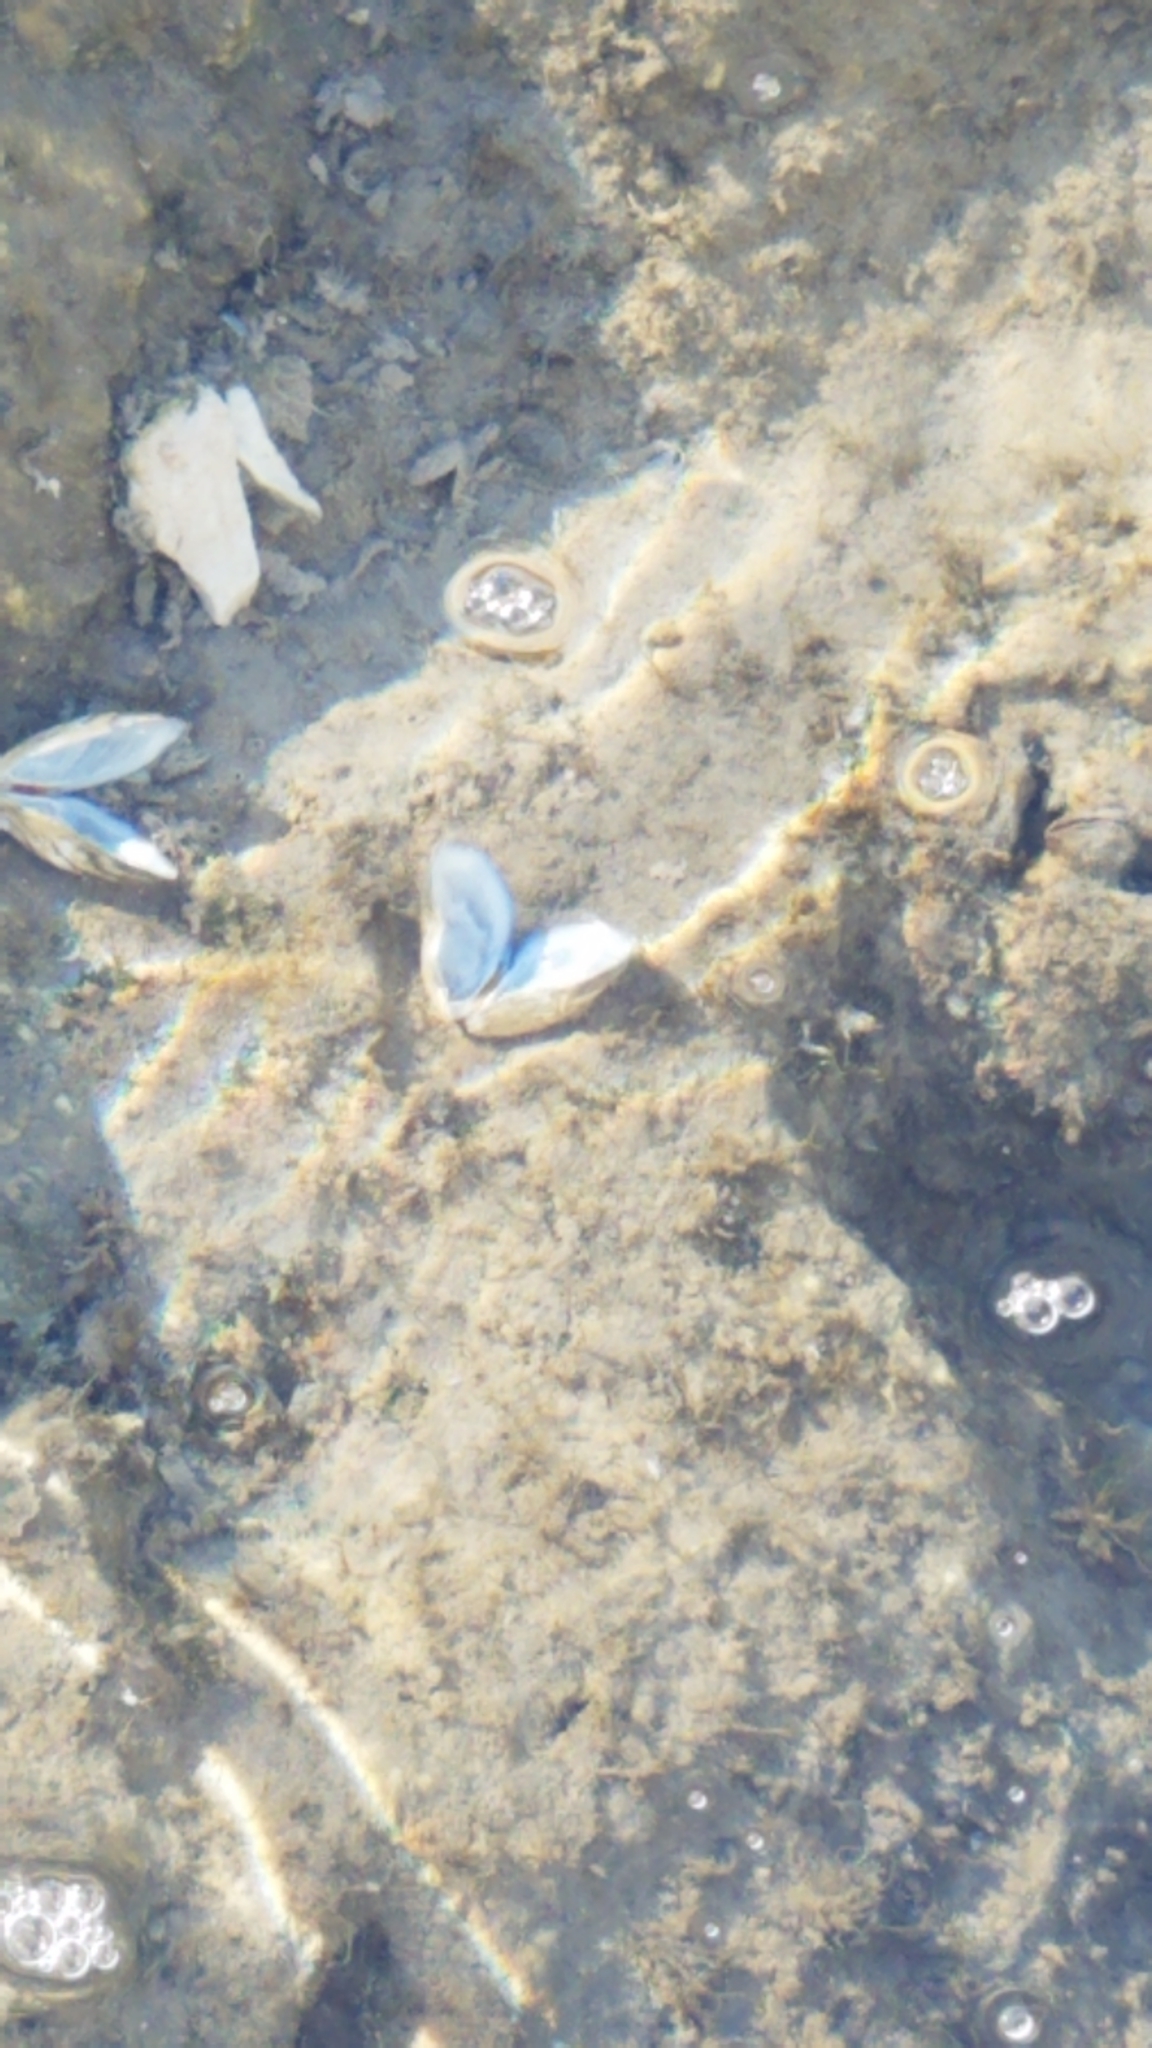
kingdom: Animalia
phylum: Mollusca
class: Bivalvia
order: Myida
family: Dreissenidae
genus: Dreissena
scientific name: Dreissena polymorpha
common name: Zebra mussel
